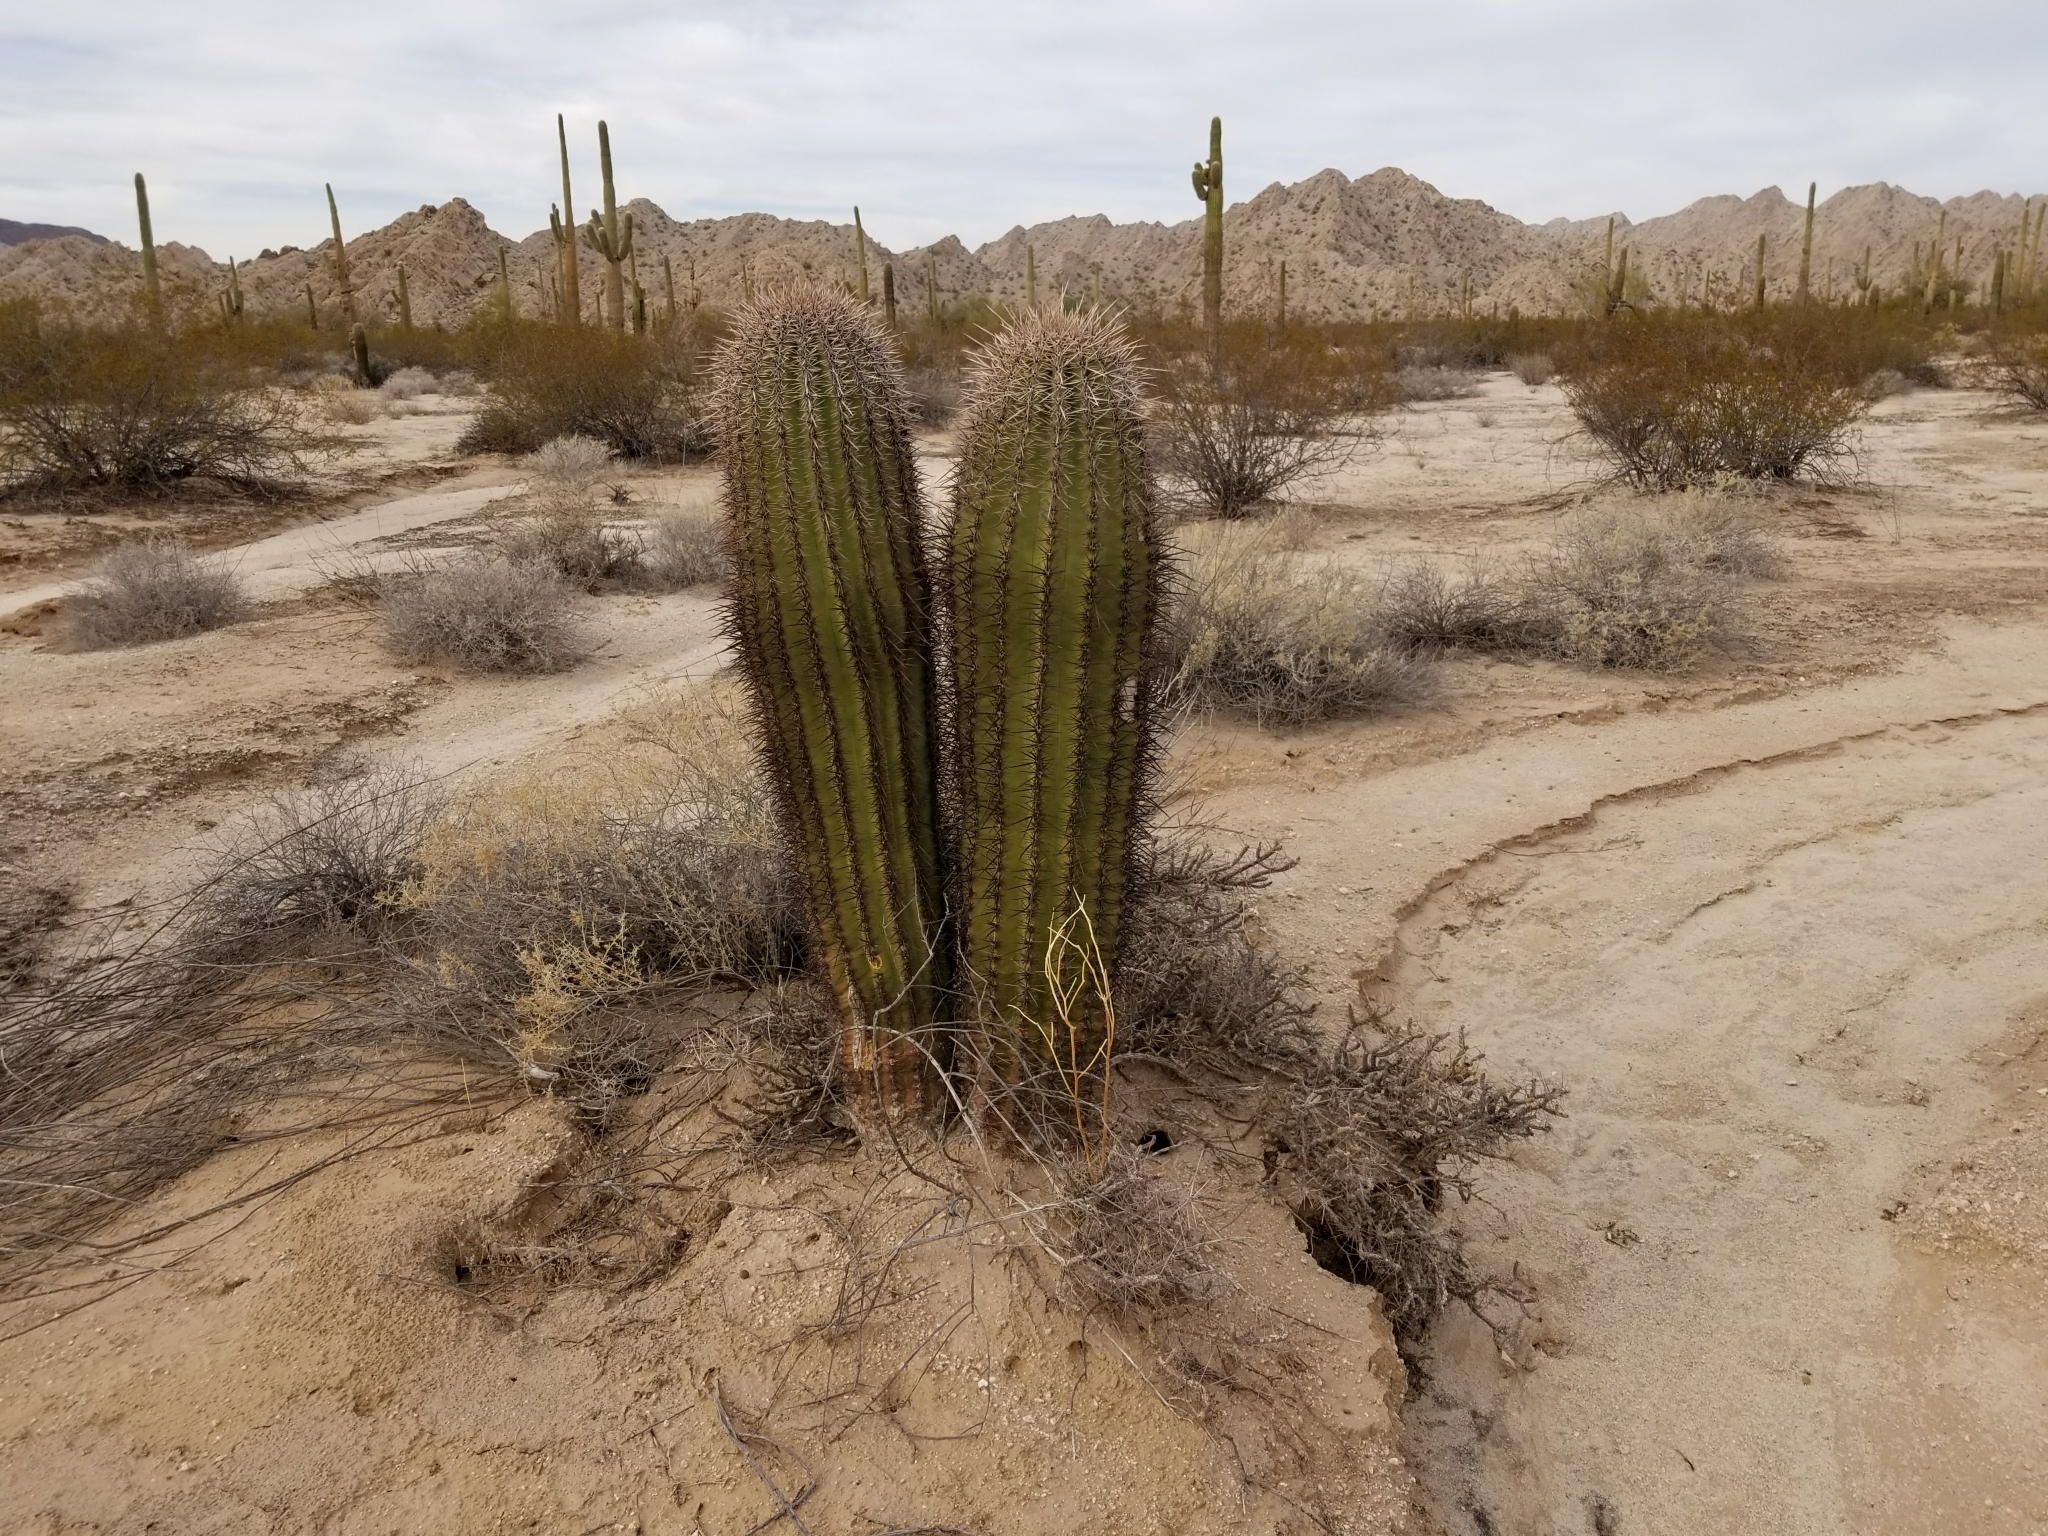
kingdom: Plantae
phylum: Tracheophyta
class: Magnoliopsida
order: Caryophyllales
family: Cactaceae
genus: Carnegiea
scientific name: Carnegiea gigantea
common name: Saguaro
